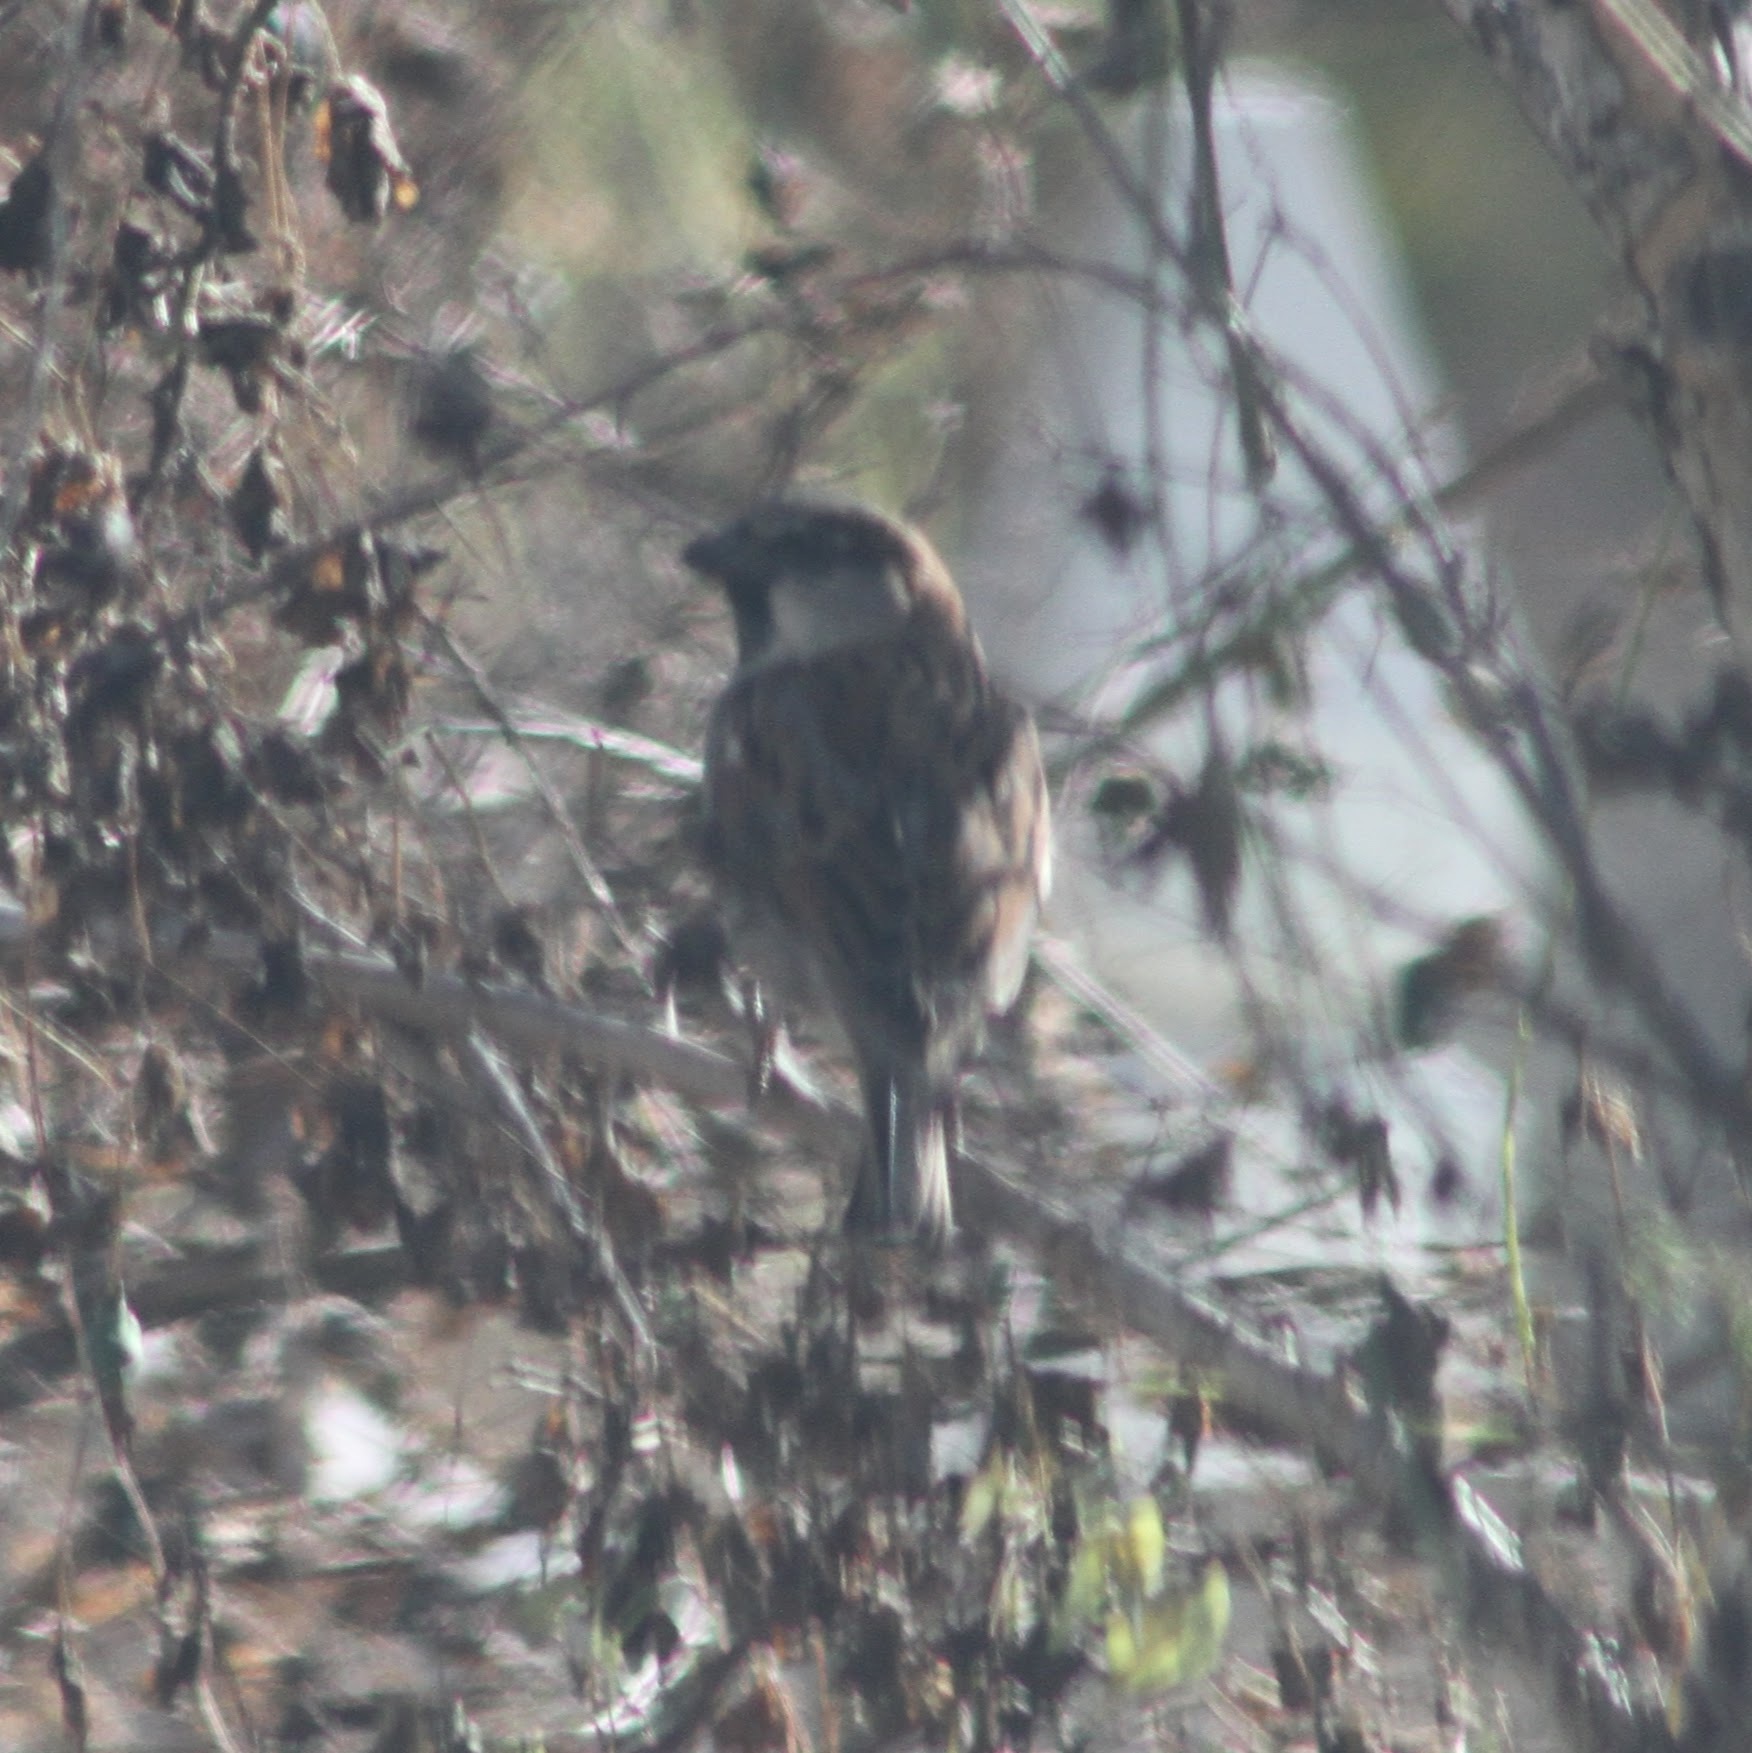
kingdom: Animalia
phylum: Chordata
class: Aves
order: Passeriformes
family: Passeridae
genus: Passer
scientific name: Passer domesticus
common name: House sparrow
